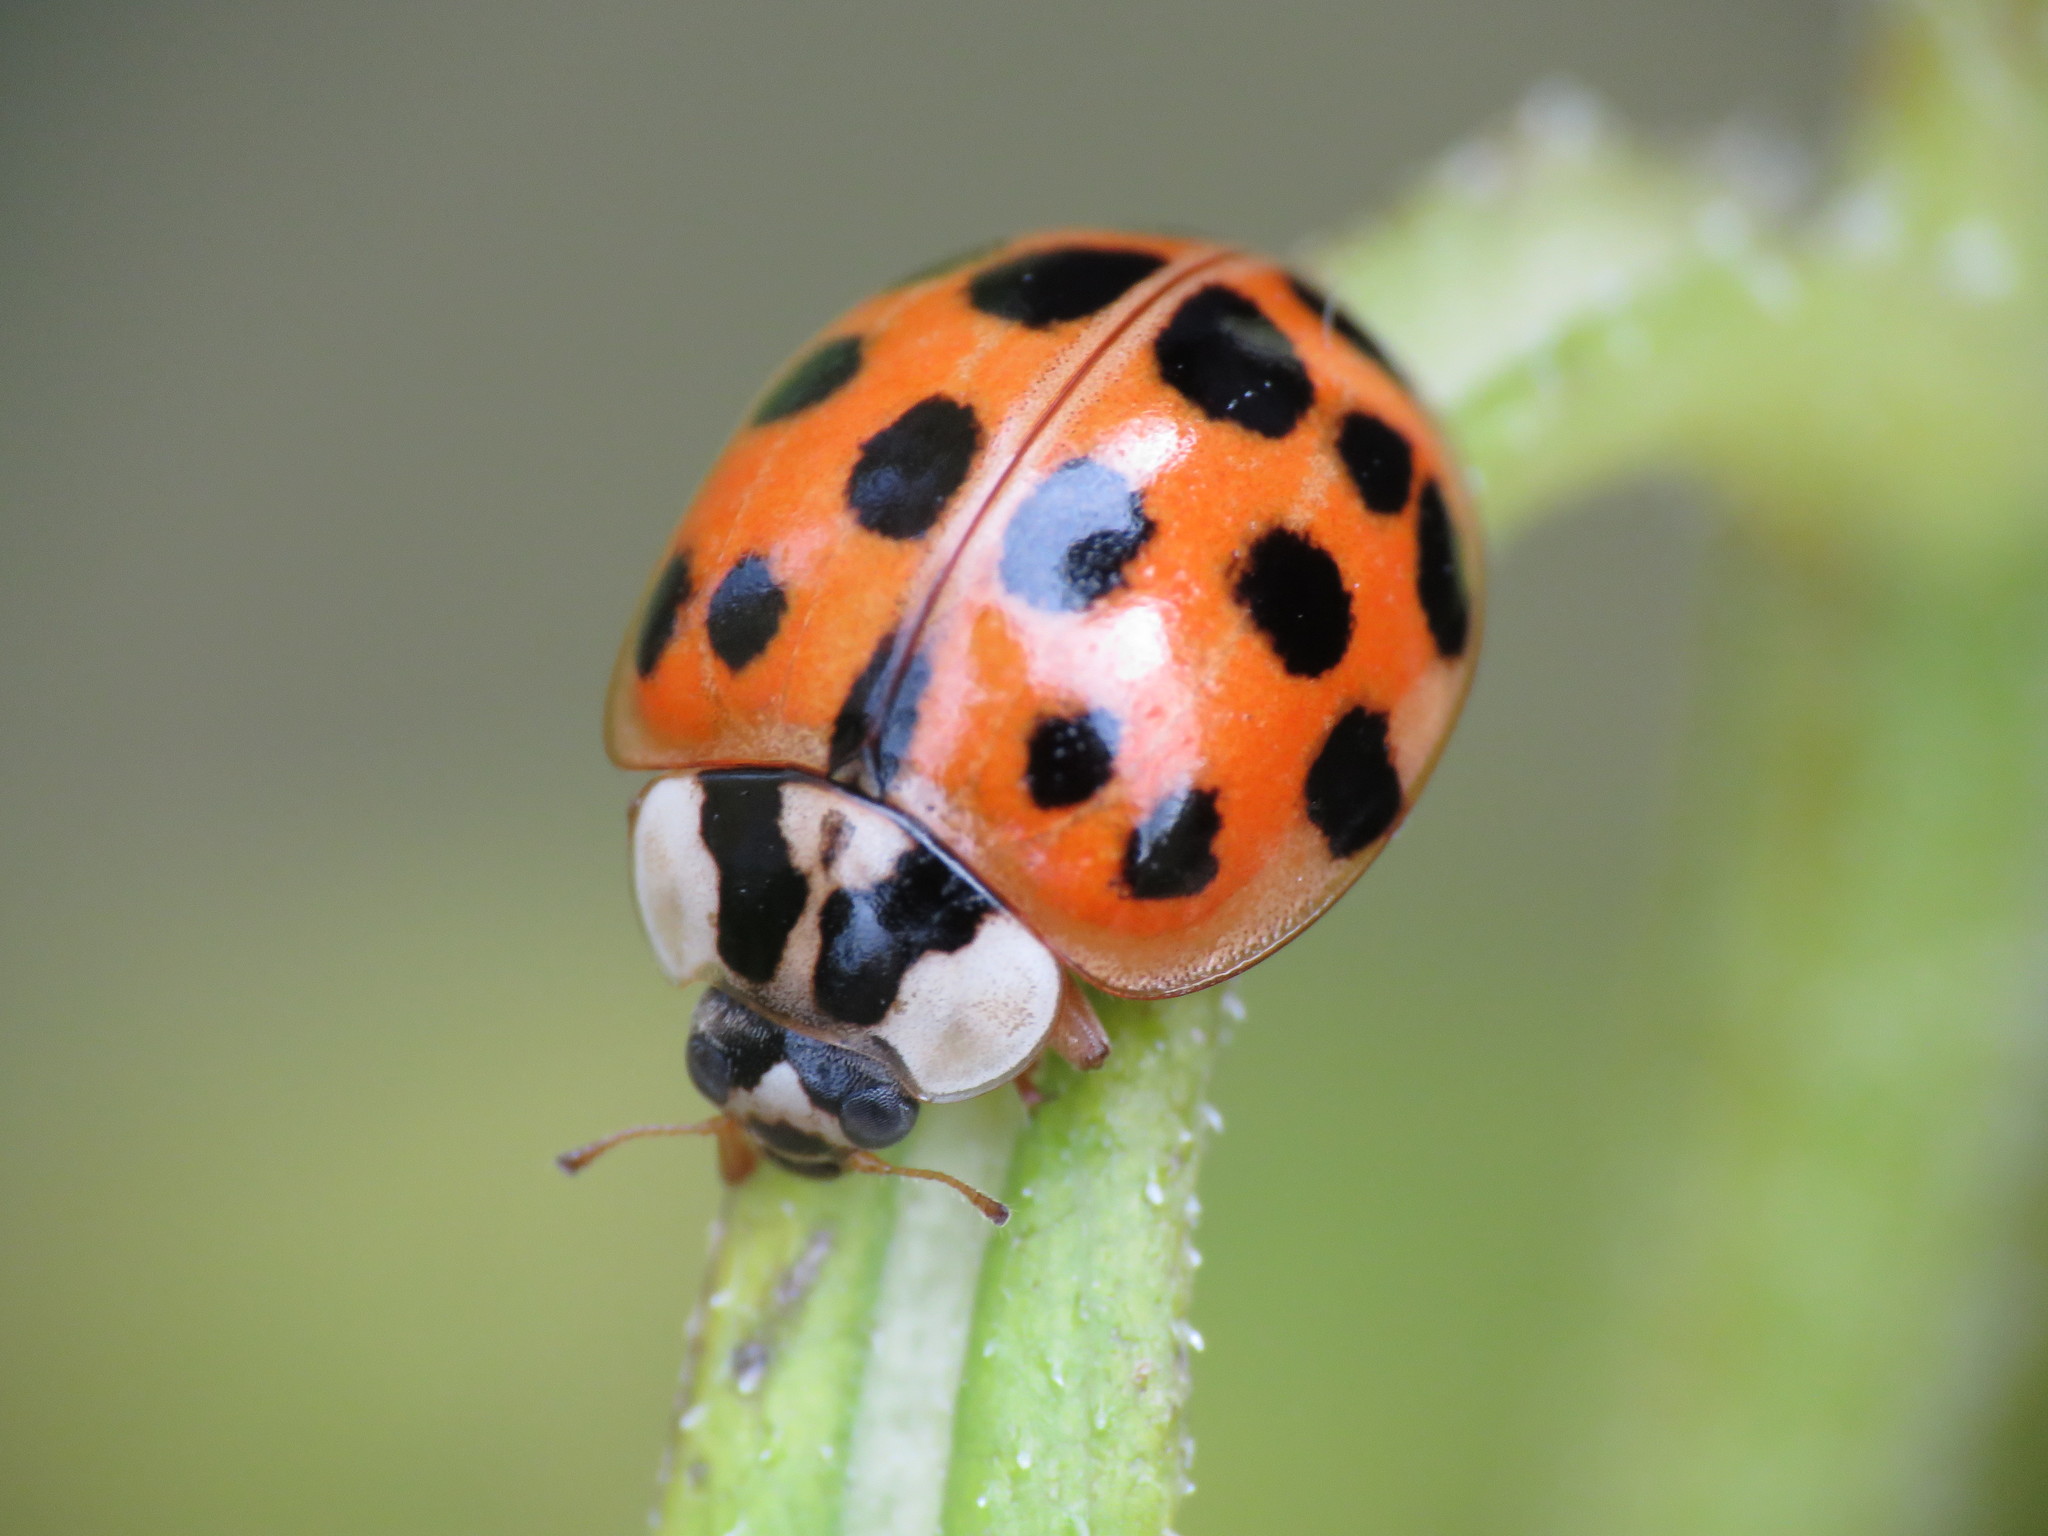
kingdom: Animalia
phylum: Arthropoda
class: Insecta
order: Coleoptera
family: Coccinellidae
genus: Harmonia
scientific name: Harmonia axyridis
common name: Harlequin ladybird
